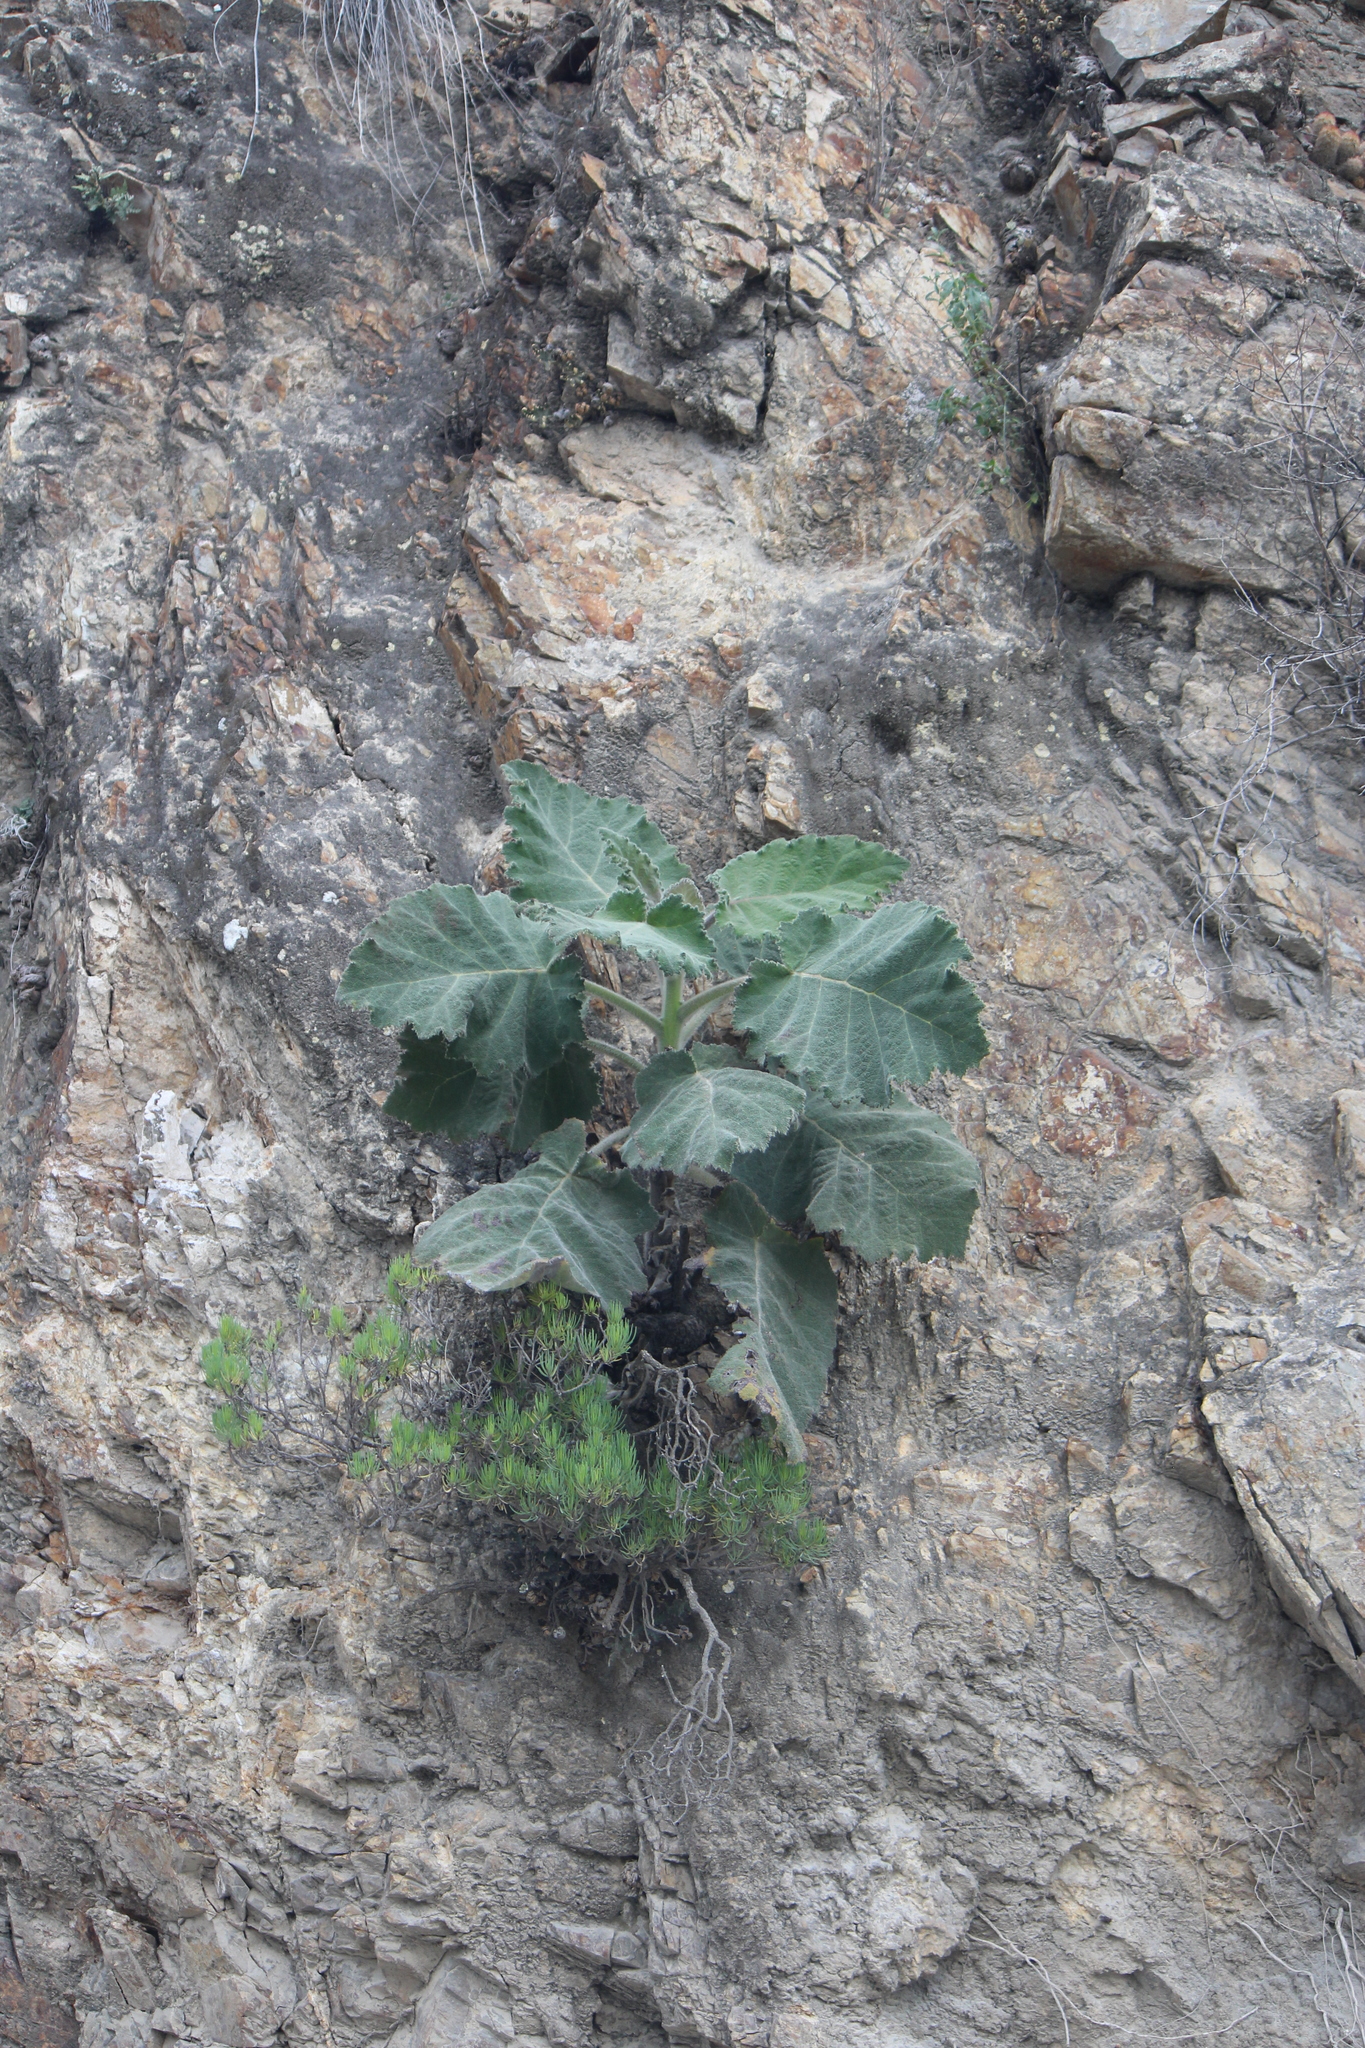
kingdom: Plantae
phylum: Tracheophyta
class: Magnoliopsida
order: Lamiales
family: Martyniaceae
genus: Proboscidea
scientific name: Proboscidea louisianica
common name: Elephant tusks
